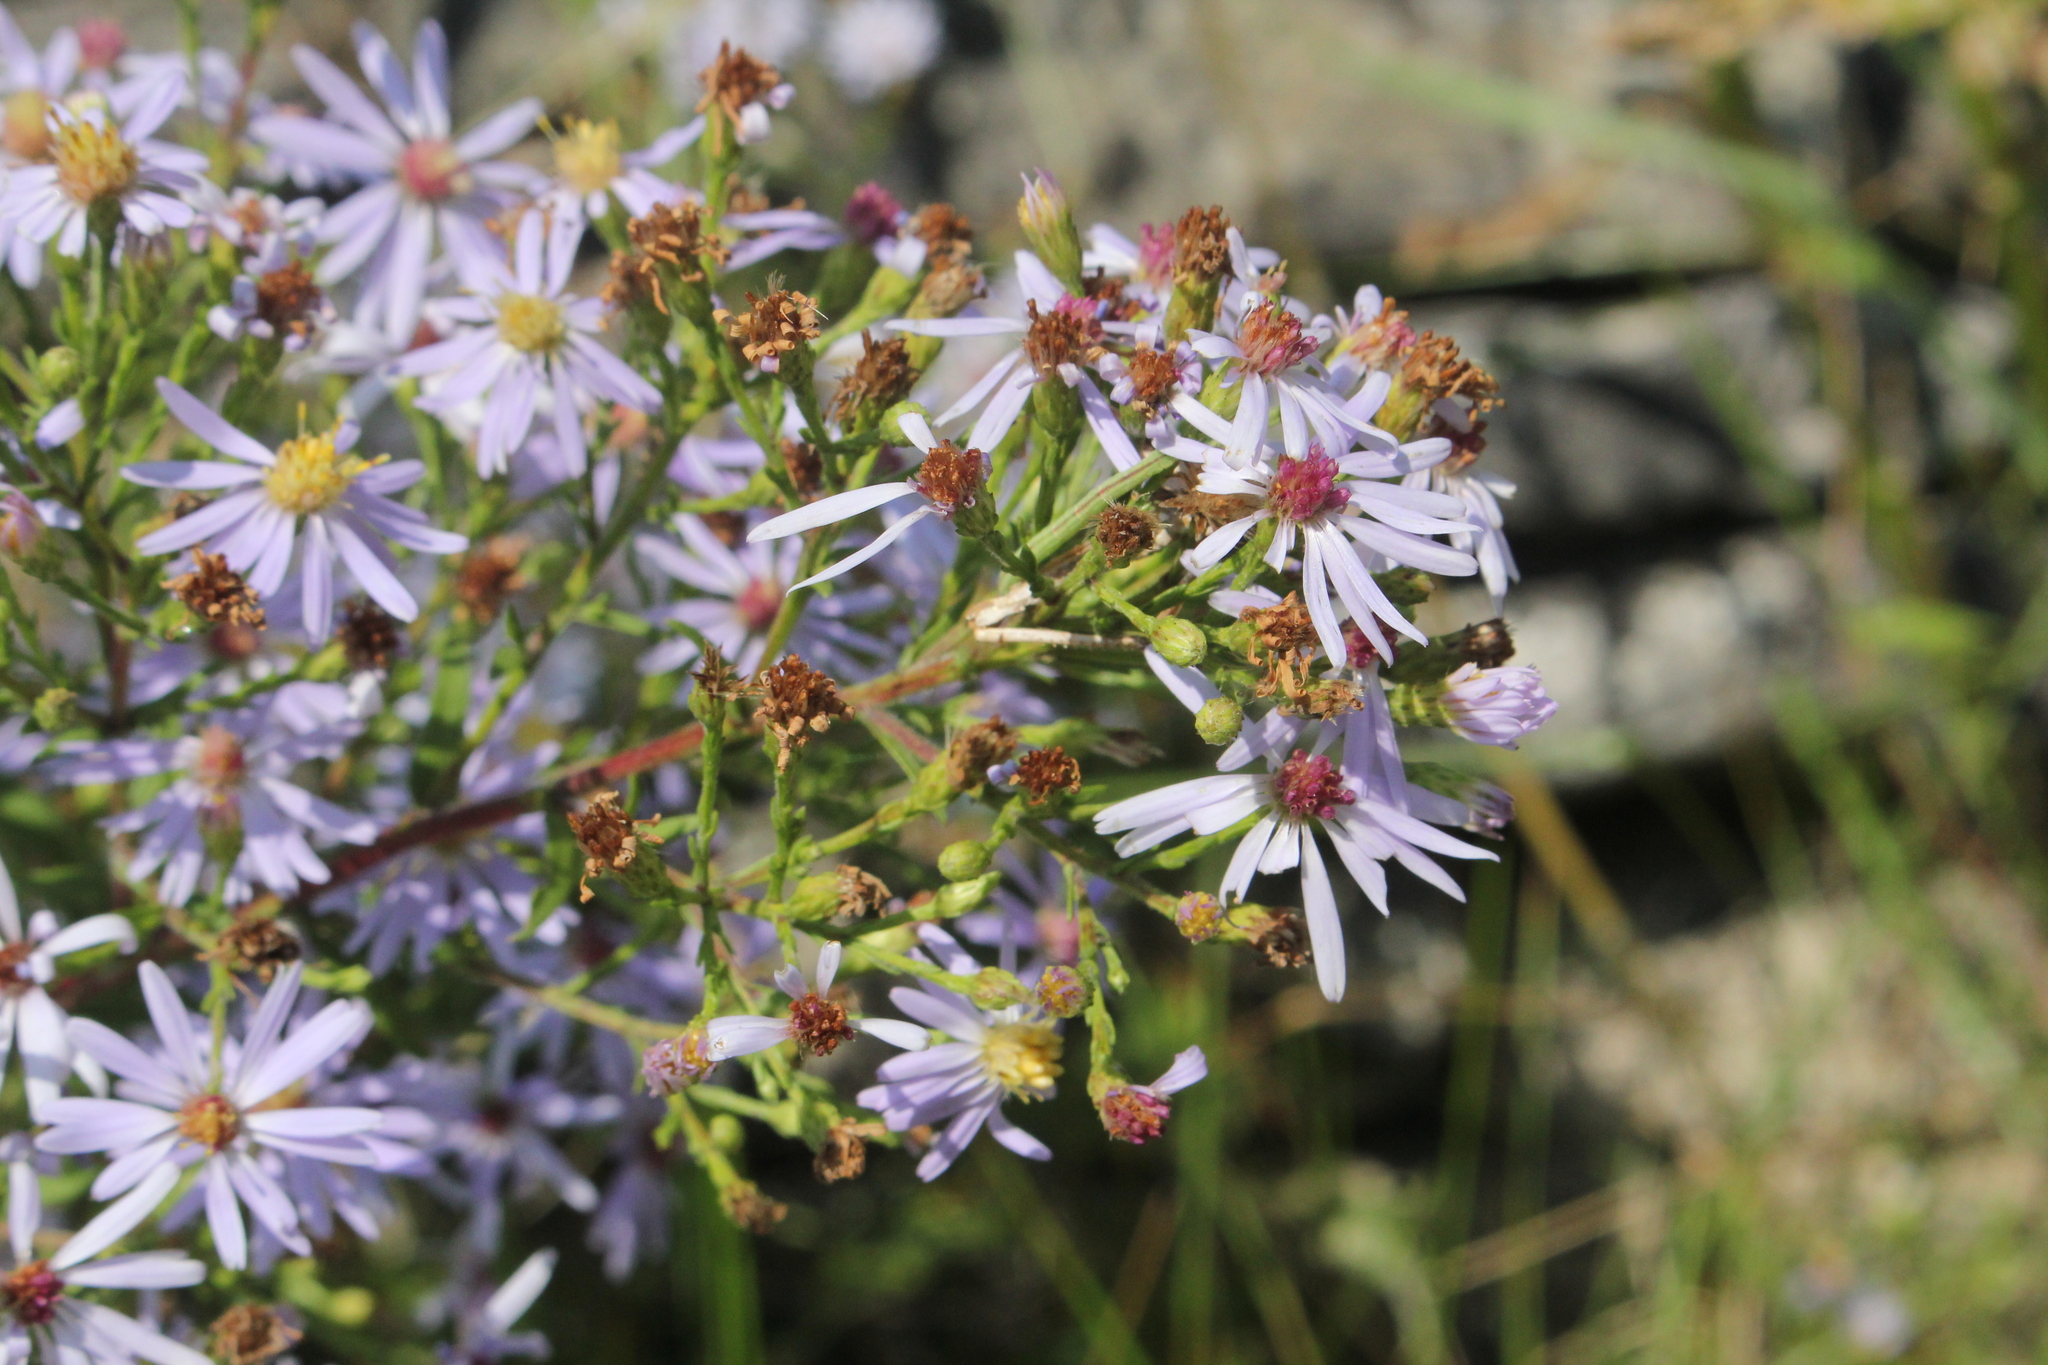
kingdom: Plantae
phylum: Tracheophyta
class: Magnoliopsida
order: Asterales
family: Asteraceae
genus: Symphyotrichum
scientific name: Symphyotrichum ciliolatum
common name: Fringed blue aster
